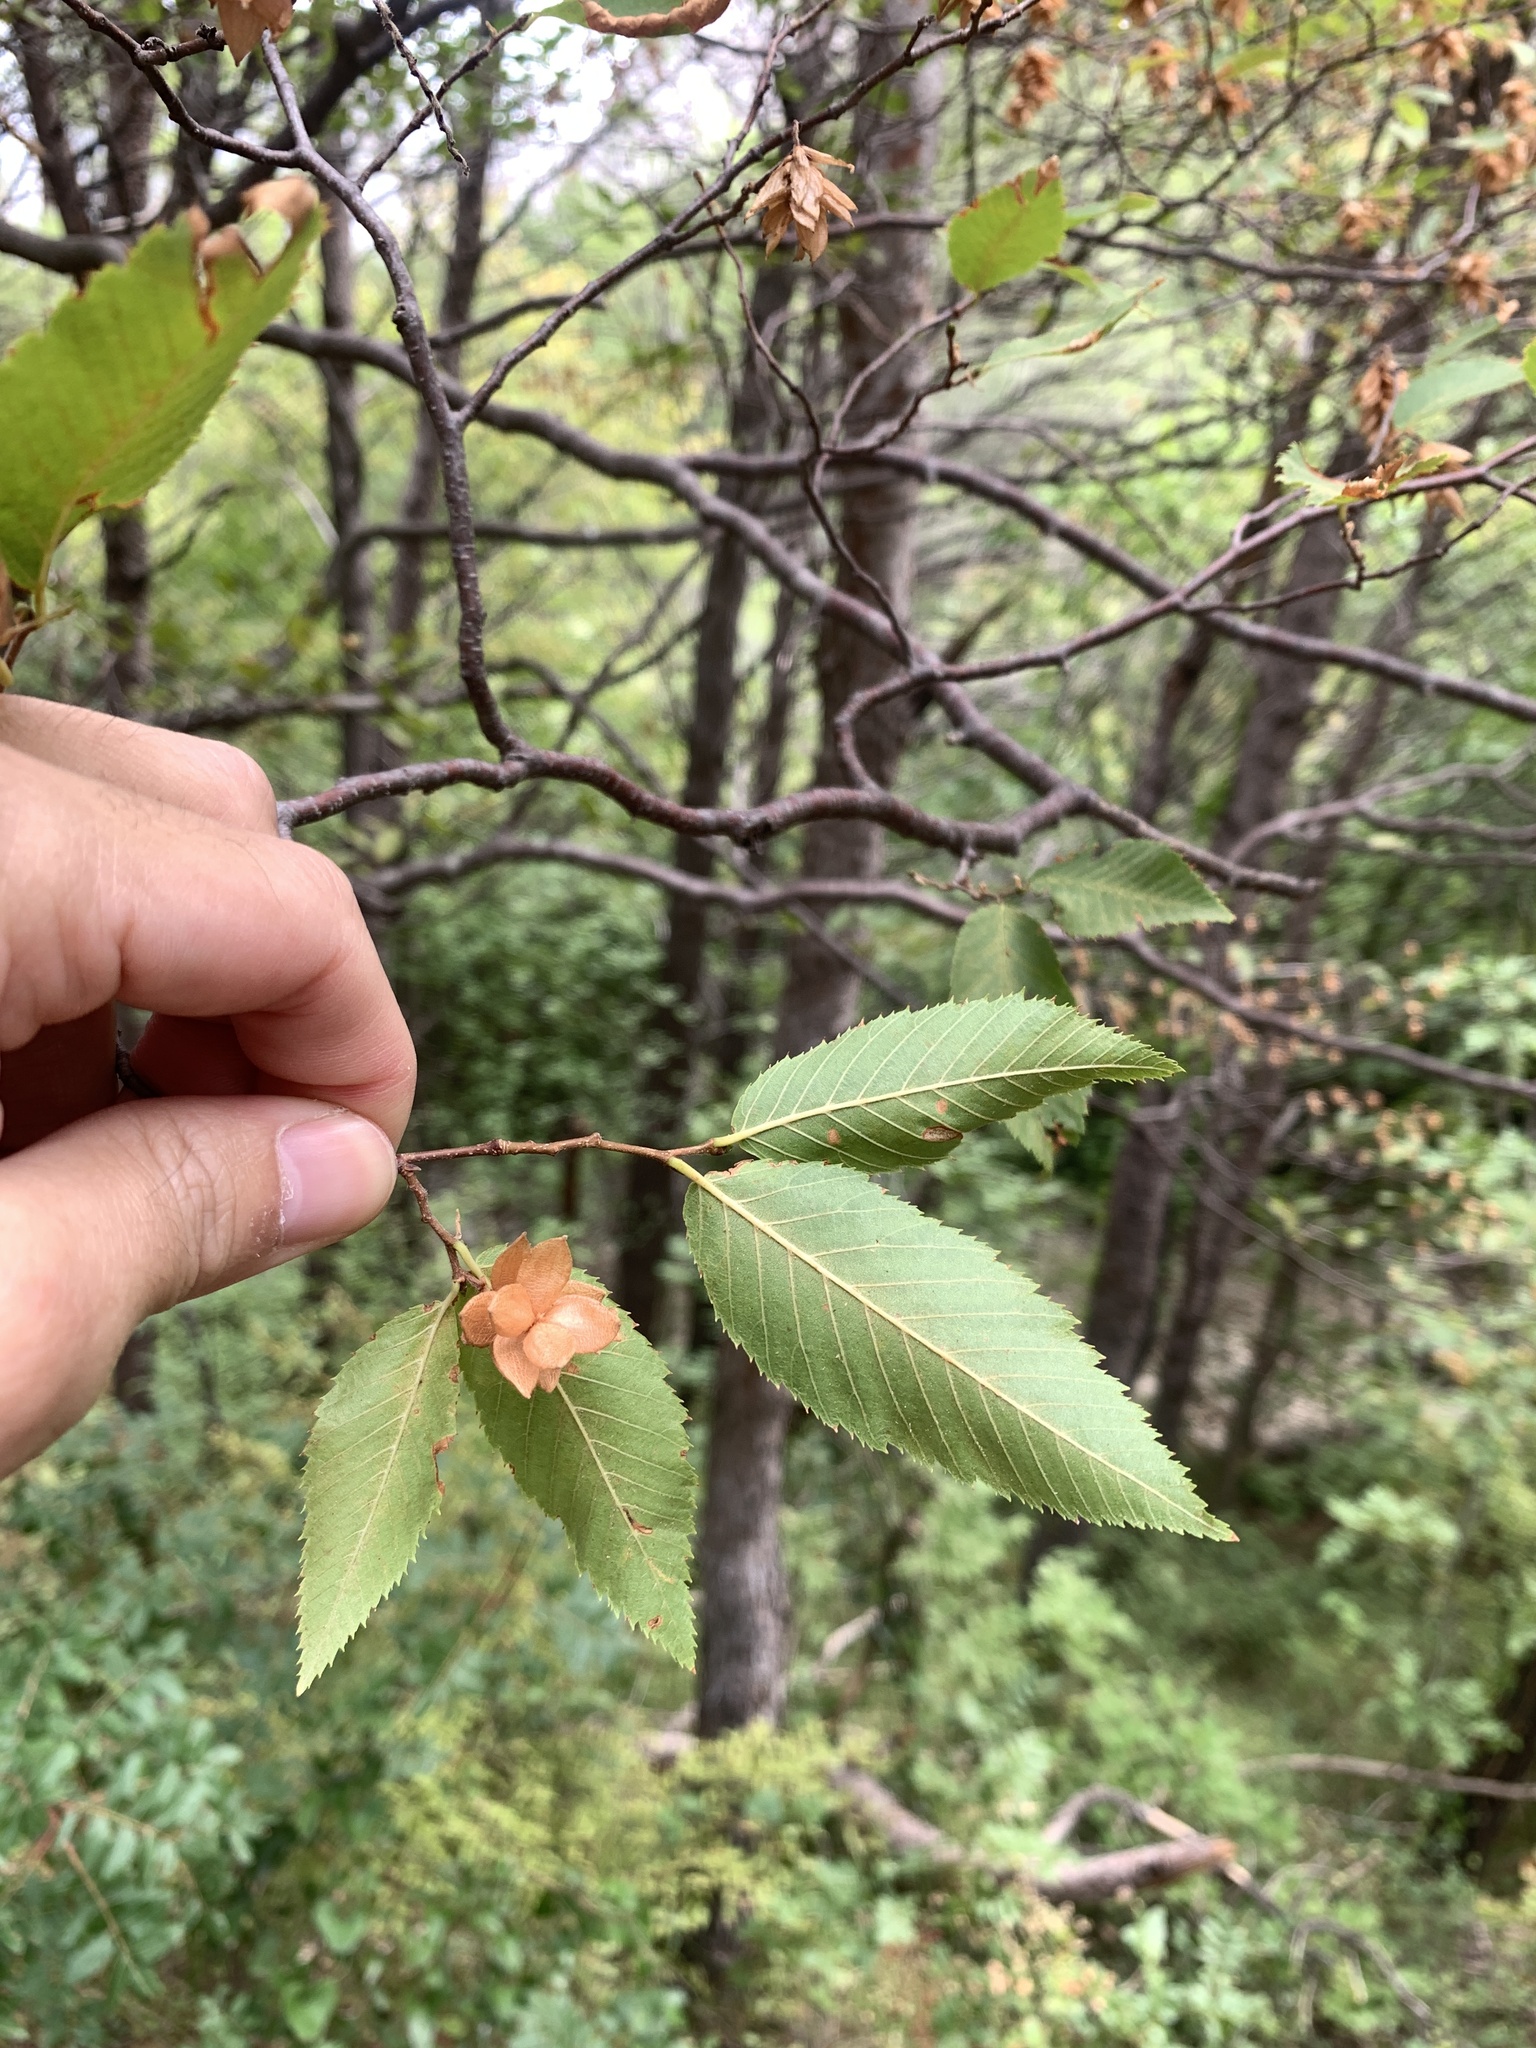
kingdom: Plantae
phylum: Tracheophyta
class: Magnoliopsida
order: Fagales
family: Betulaceae
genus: Ostrya
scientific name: Ostrya carpinifolia
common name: European hop-hornbeam
